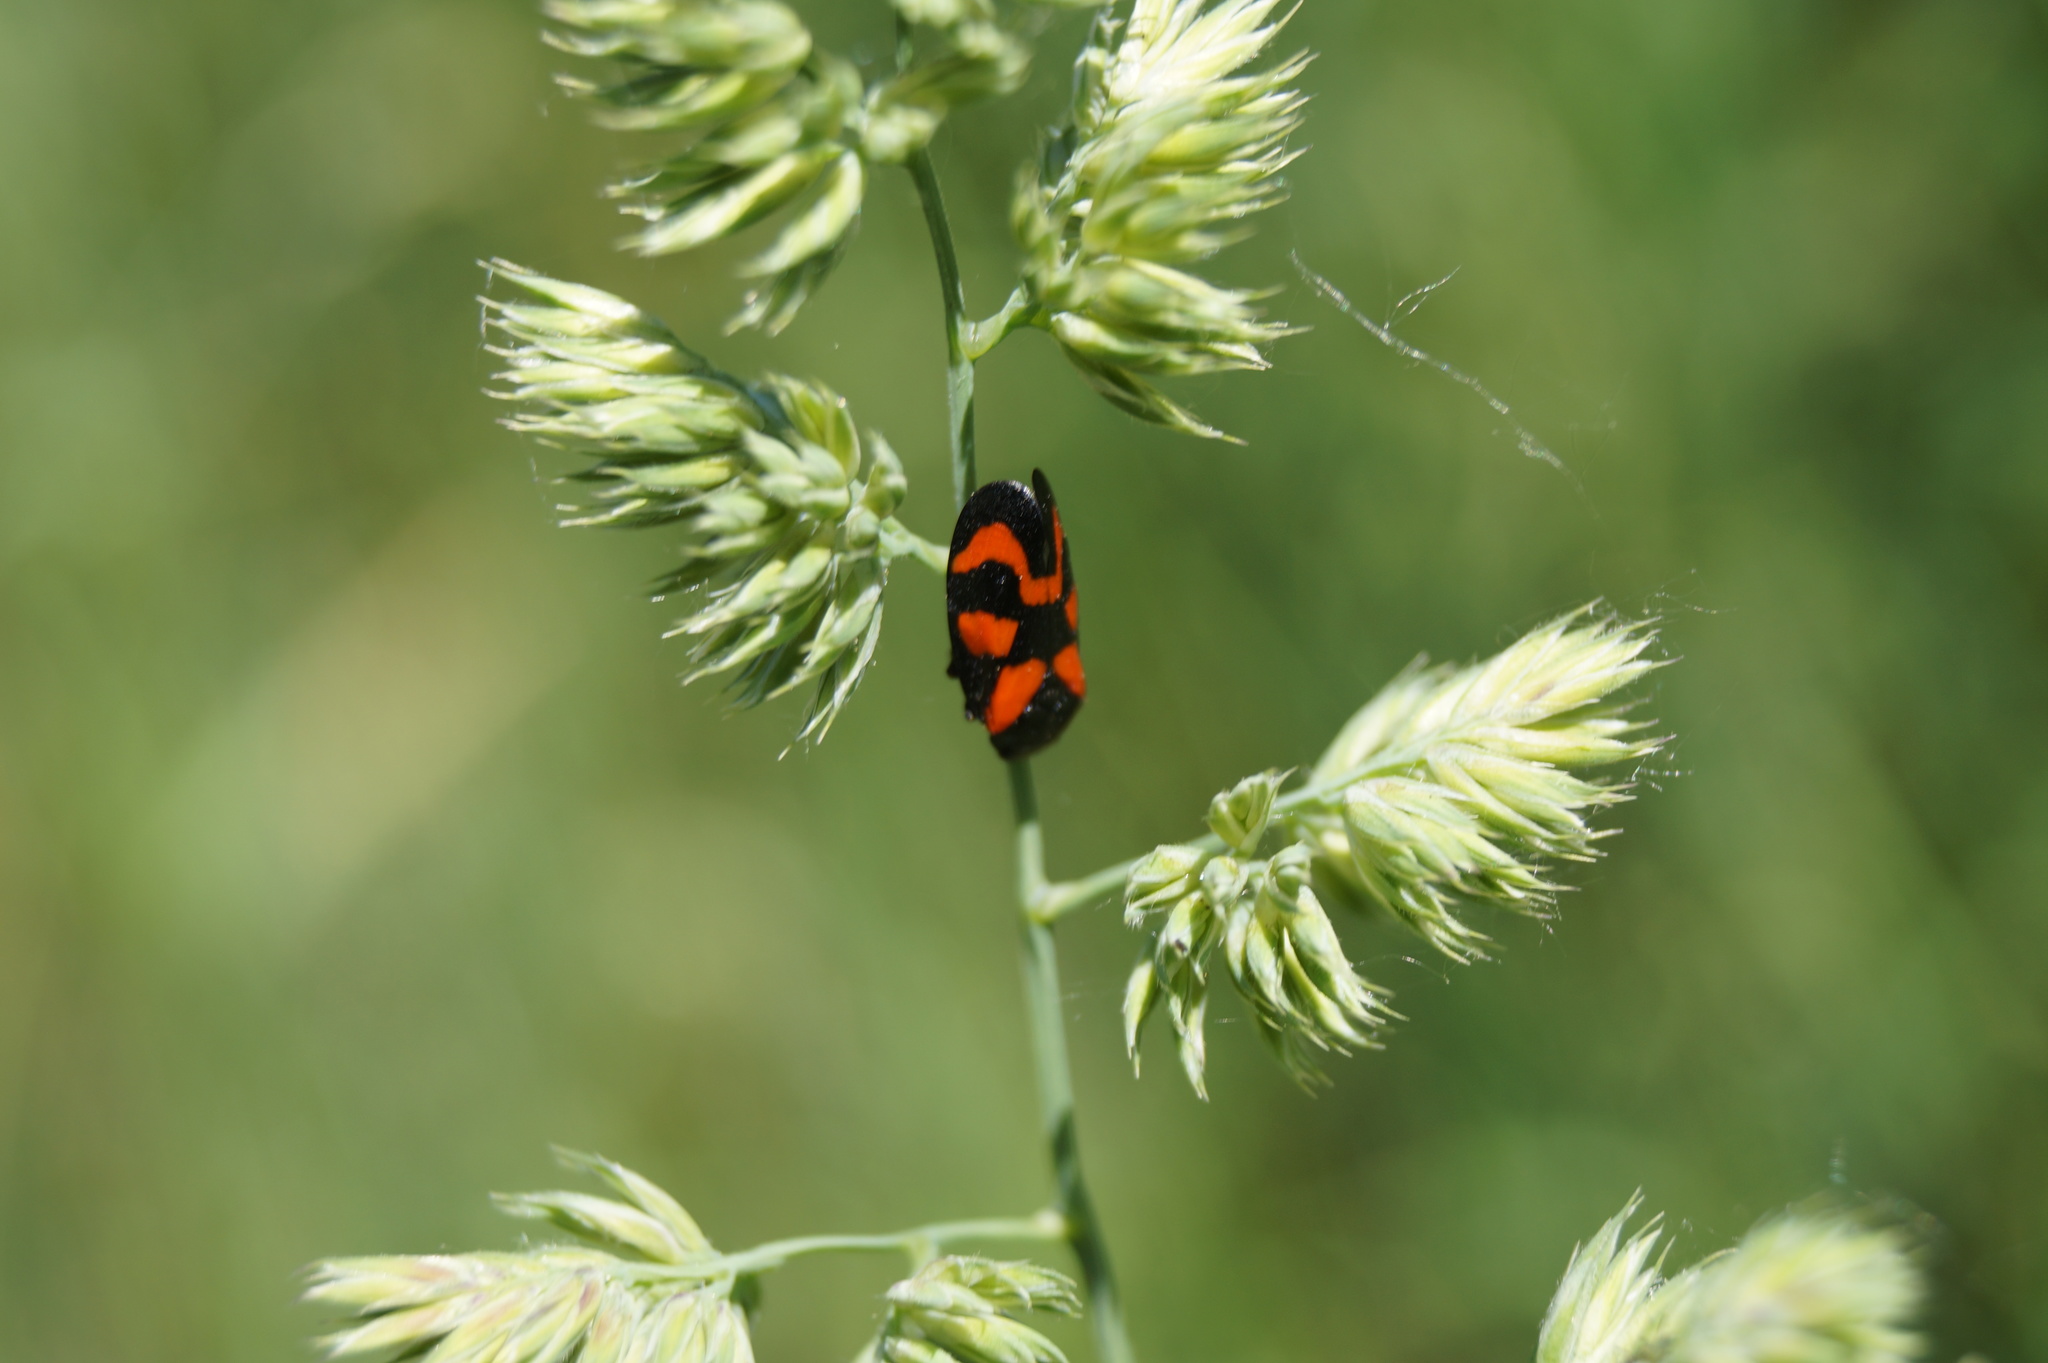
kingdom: Animalia
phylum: Arthropoda
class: Insecta
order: Hemiptera
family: Cercopidae
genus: Cercopis
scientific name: Cercopis vulnerata
